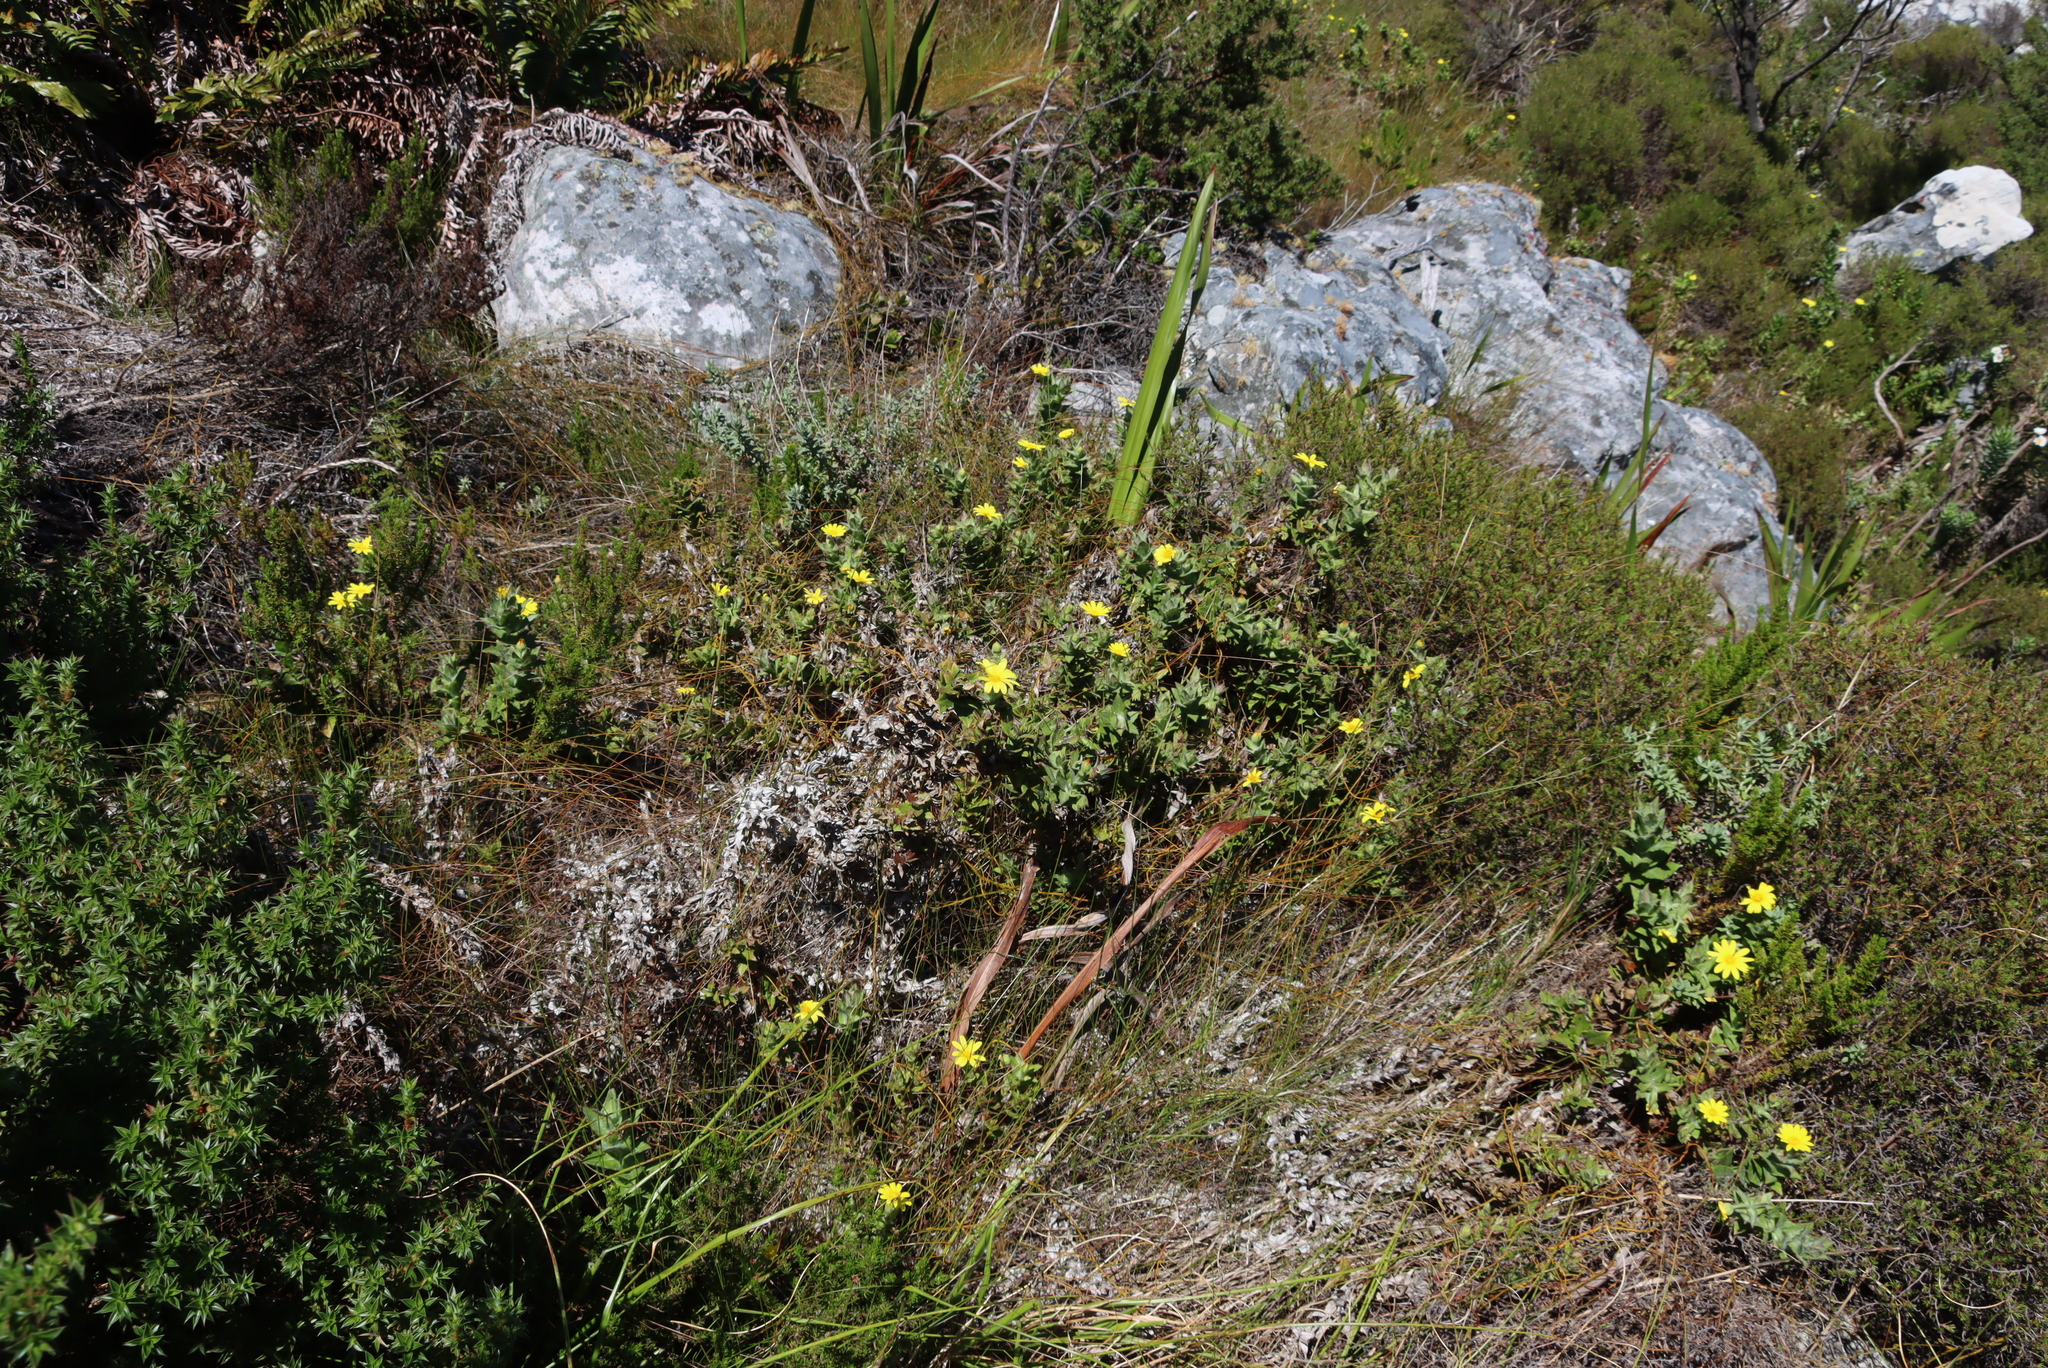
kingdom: Plantae
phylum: Tracheophyta
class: Magnoliopsida
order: Asterales
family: Asteraceae
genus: Osteospermum
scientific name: Osteospermum ilicifolium
